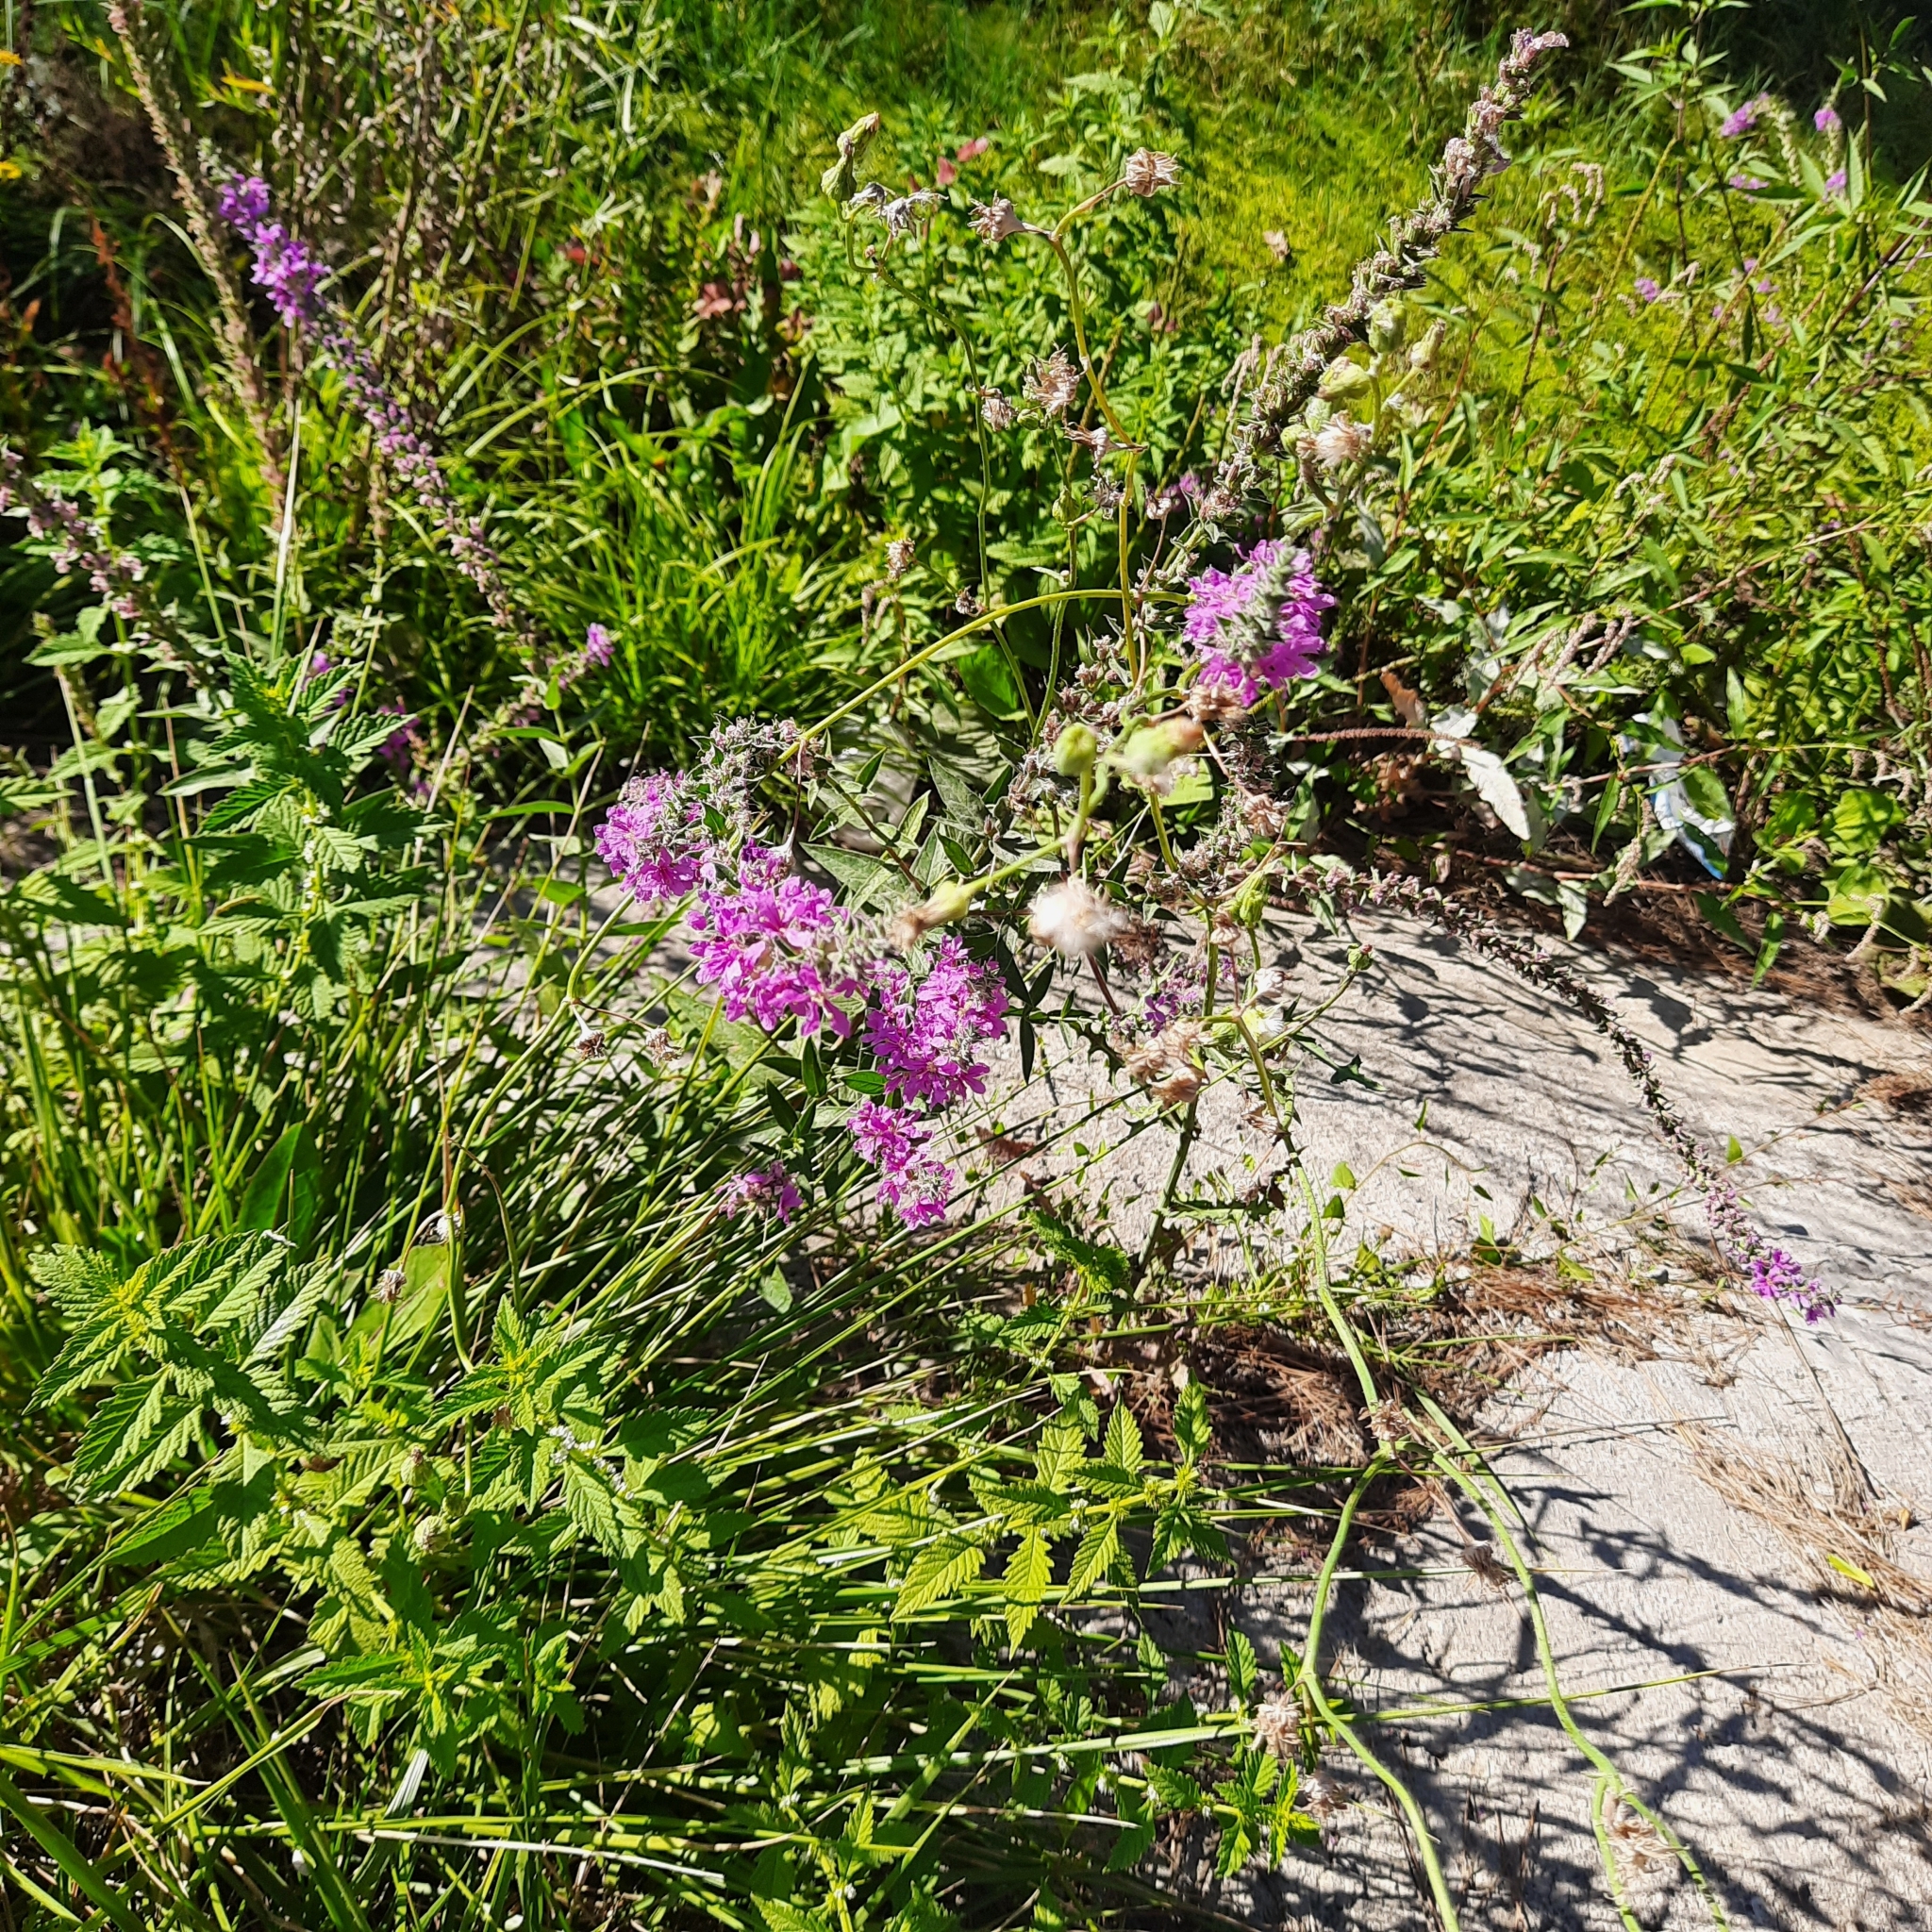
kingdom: Plantae
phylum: Tracheophyta
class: Magnoliopsida
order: Myrtales
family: Lythraceae
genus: Lythrum
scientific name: Lythrum salicaria
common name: Purple loosestrife
